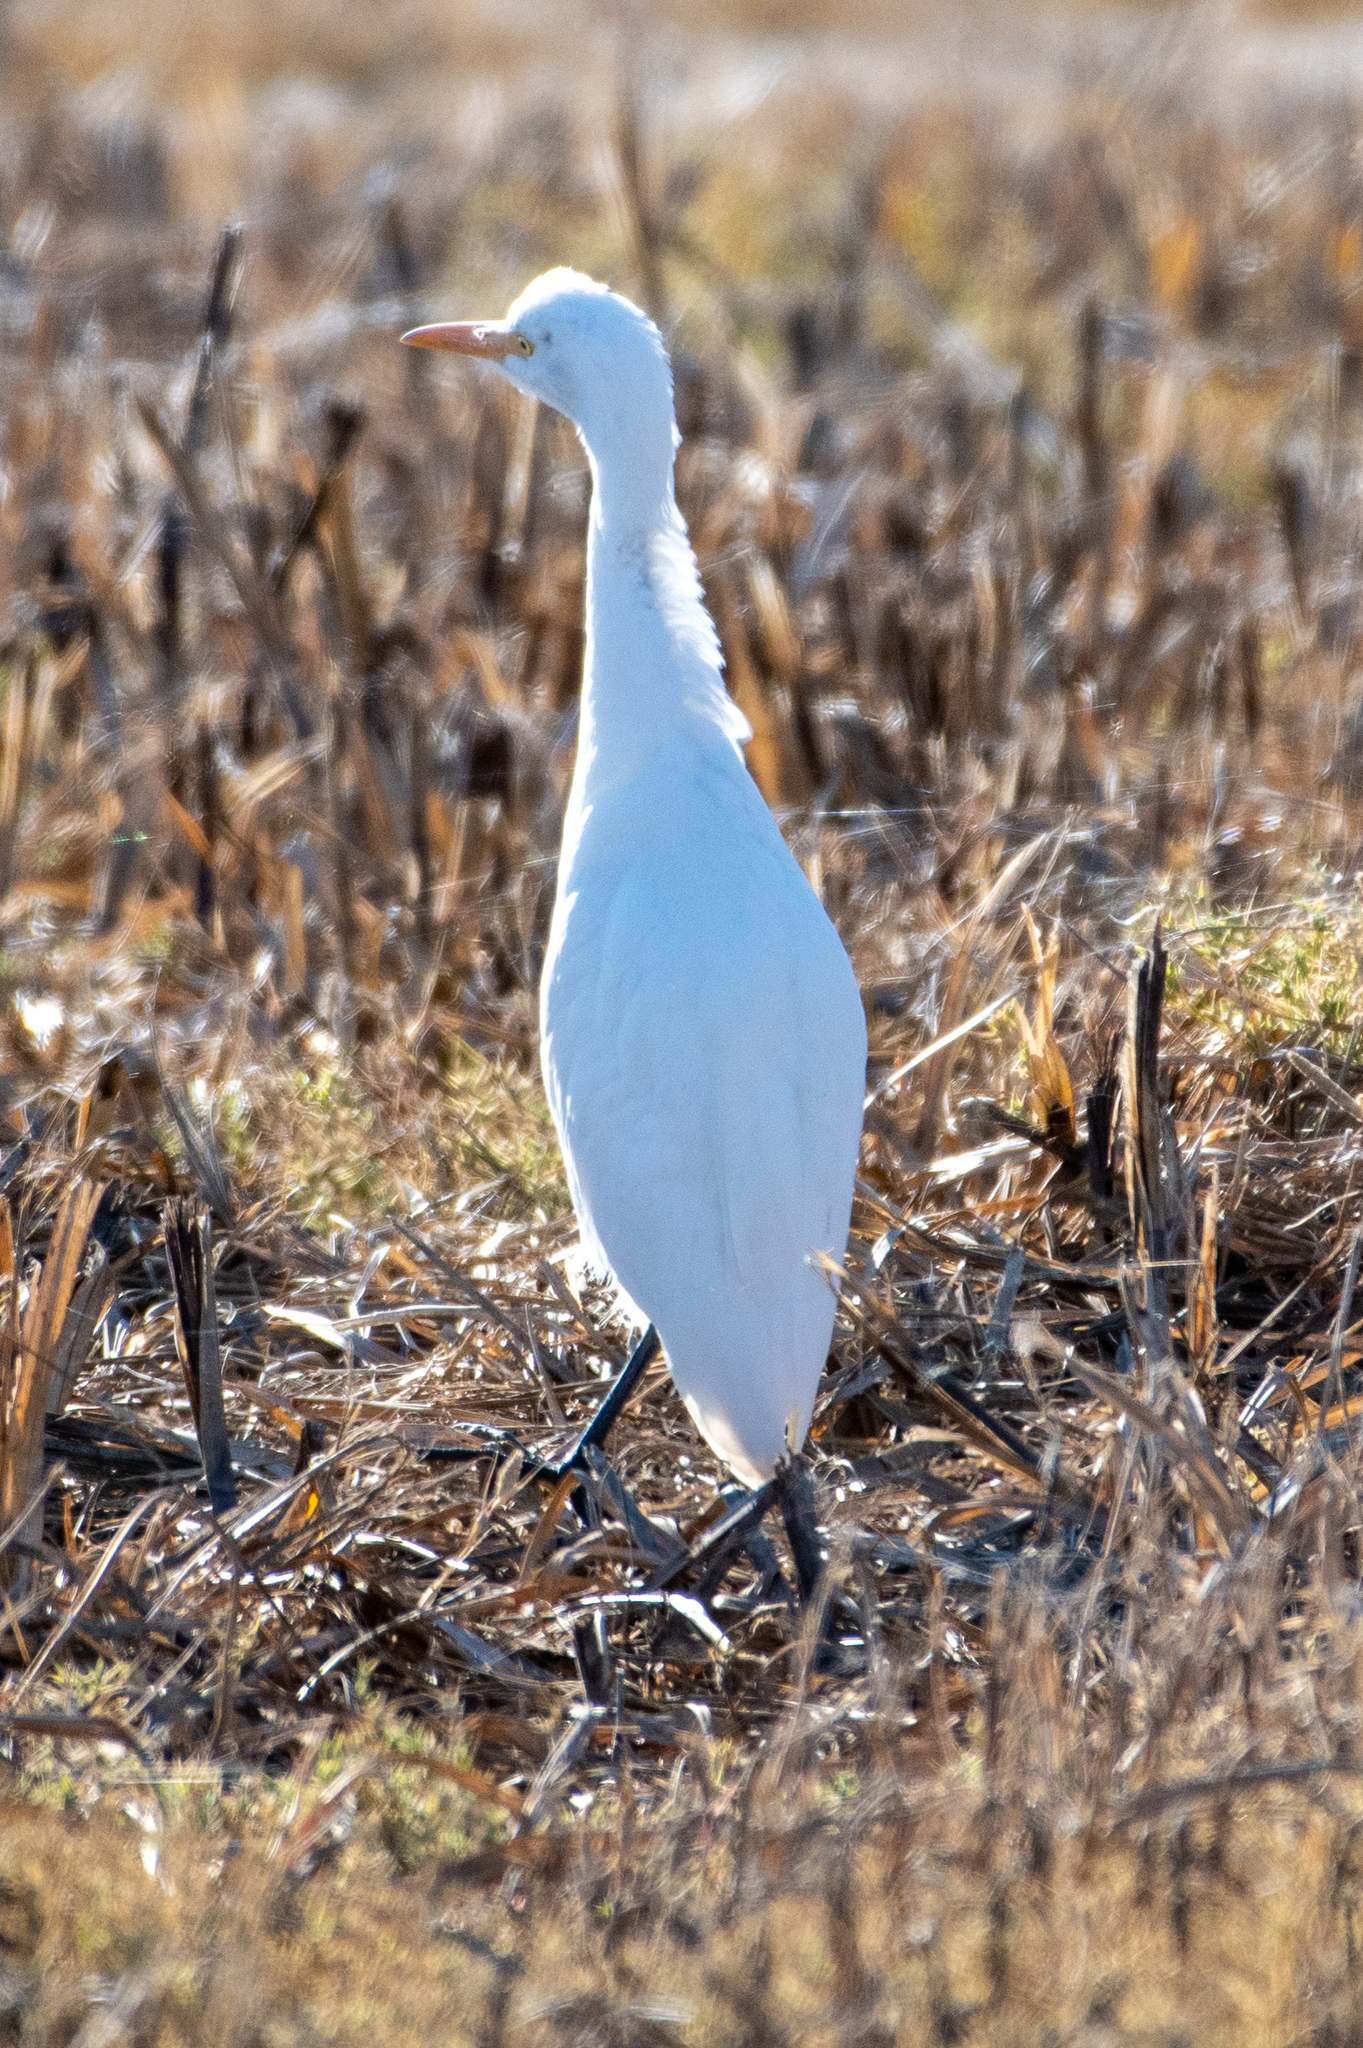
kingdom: Animalia
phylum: Chordata
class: Aves
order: Pelecaniformes
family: Ardeidae
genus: Bubulcus
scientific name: Bubulcus ibis
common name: Cattle egret
